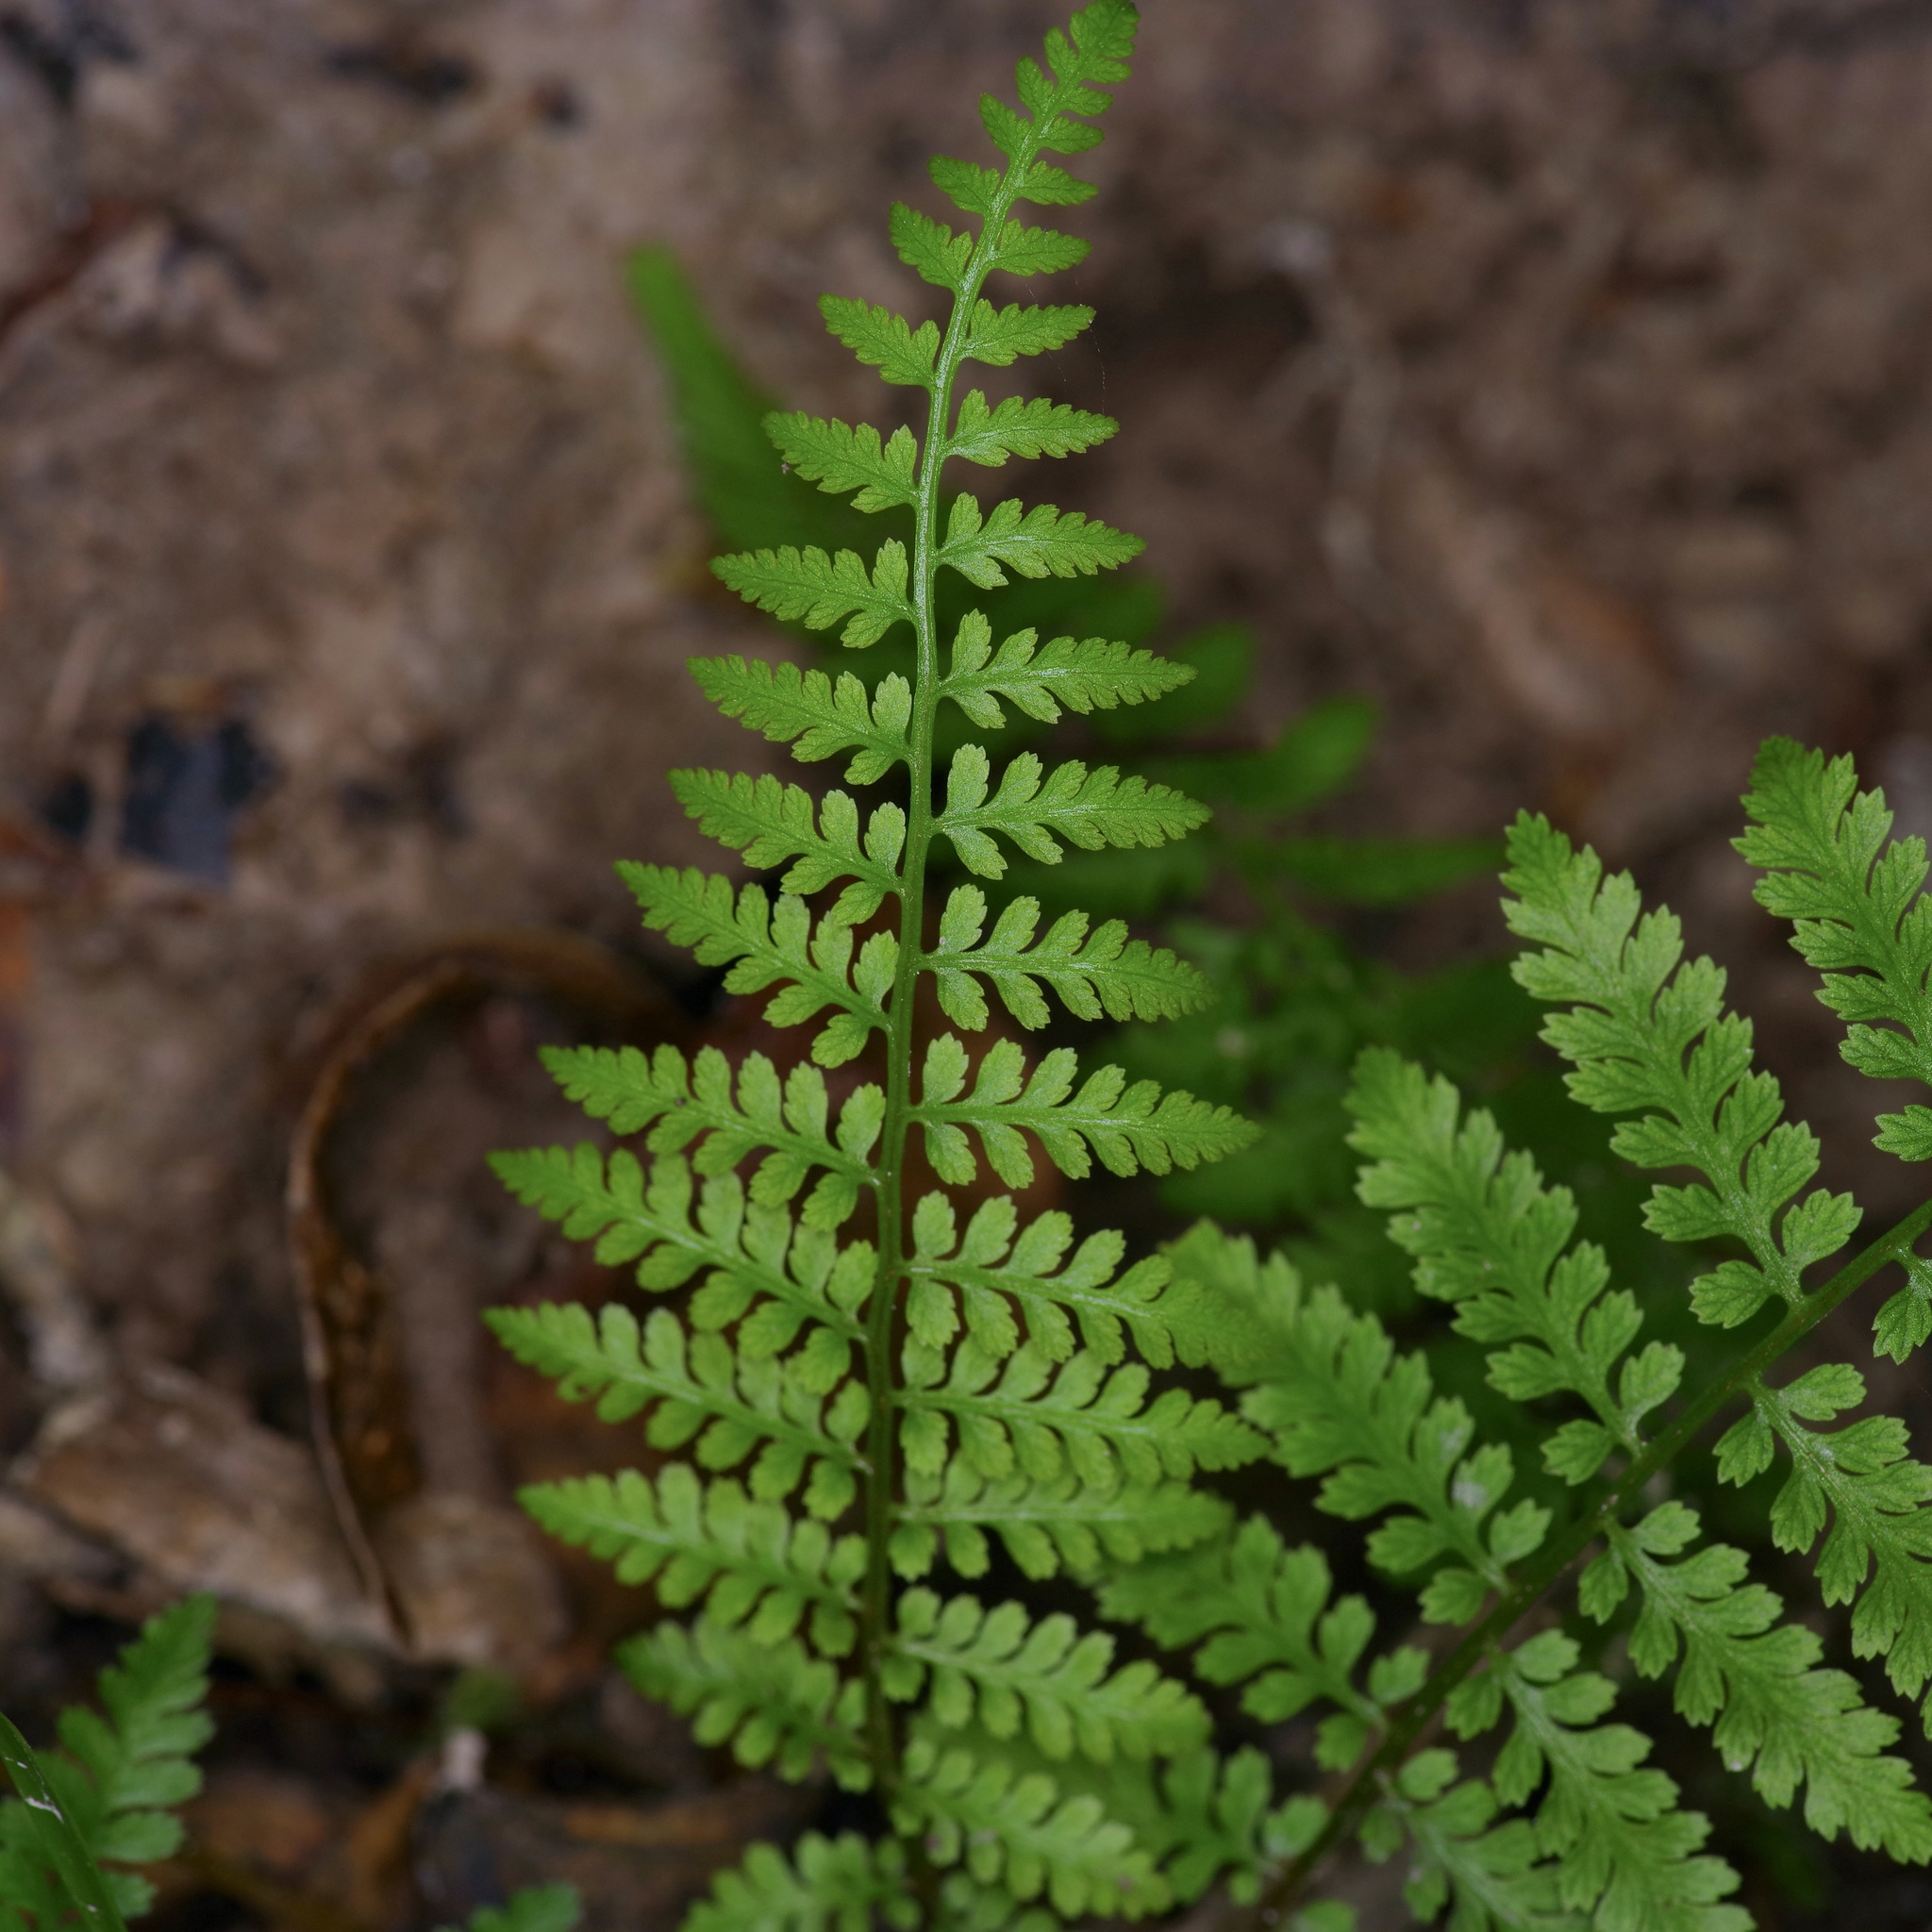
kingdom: Plantae
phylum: Tracheophyta
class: Polypodiopsida
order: Polypodiales
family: Athyriaceae
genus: Athyrium
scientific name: Athyrium asplenioides
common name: Southern lady fern
